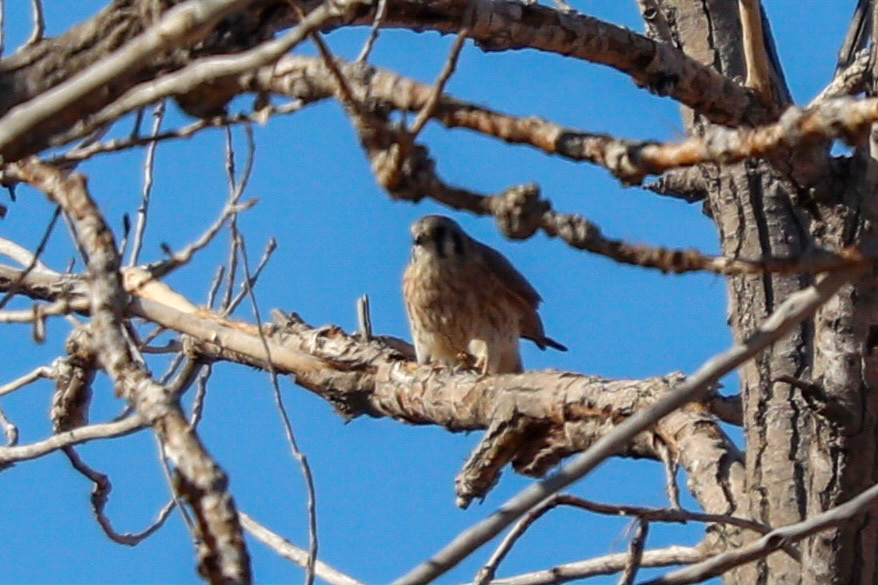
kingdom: Animalia
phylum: Chordata
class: Aves
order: Falconiformes
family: Falconidae
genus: Falco
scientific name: Falco sparverius
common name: American kestrel
